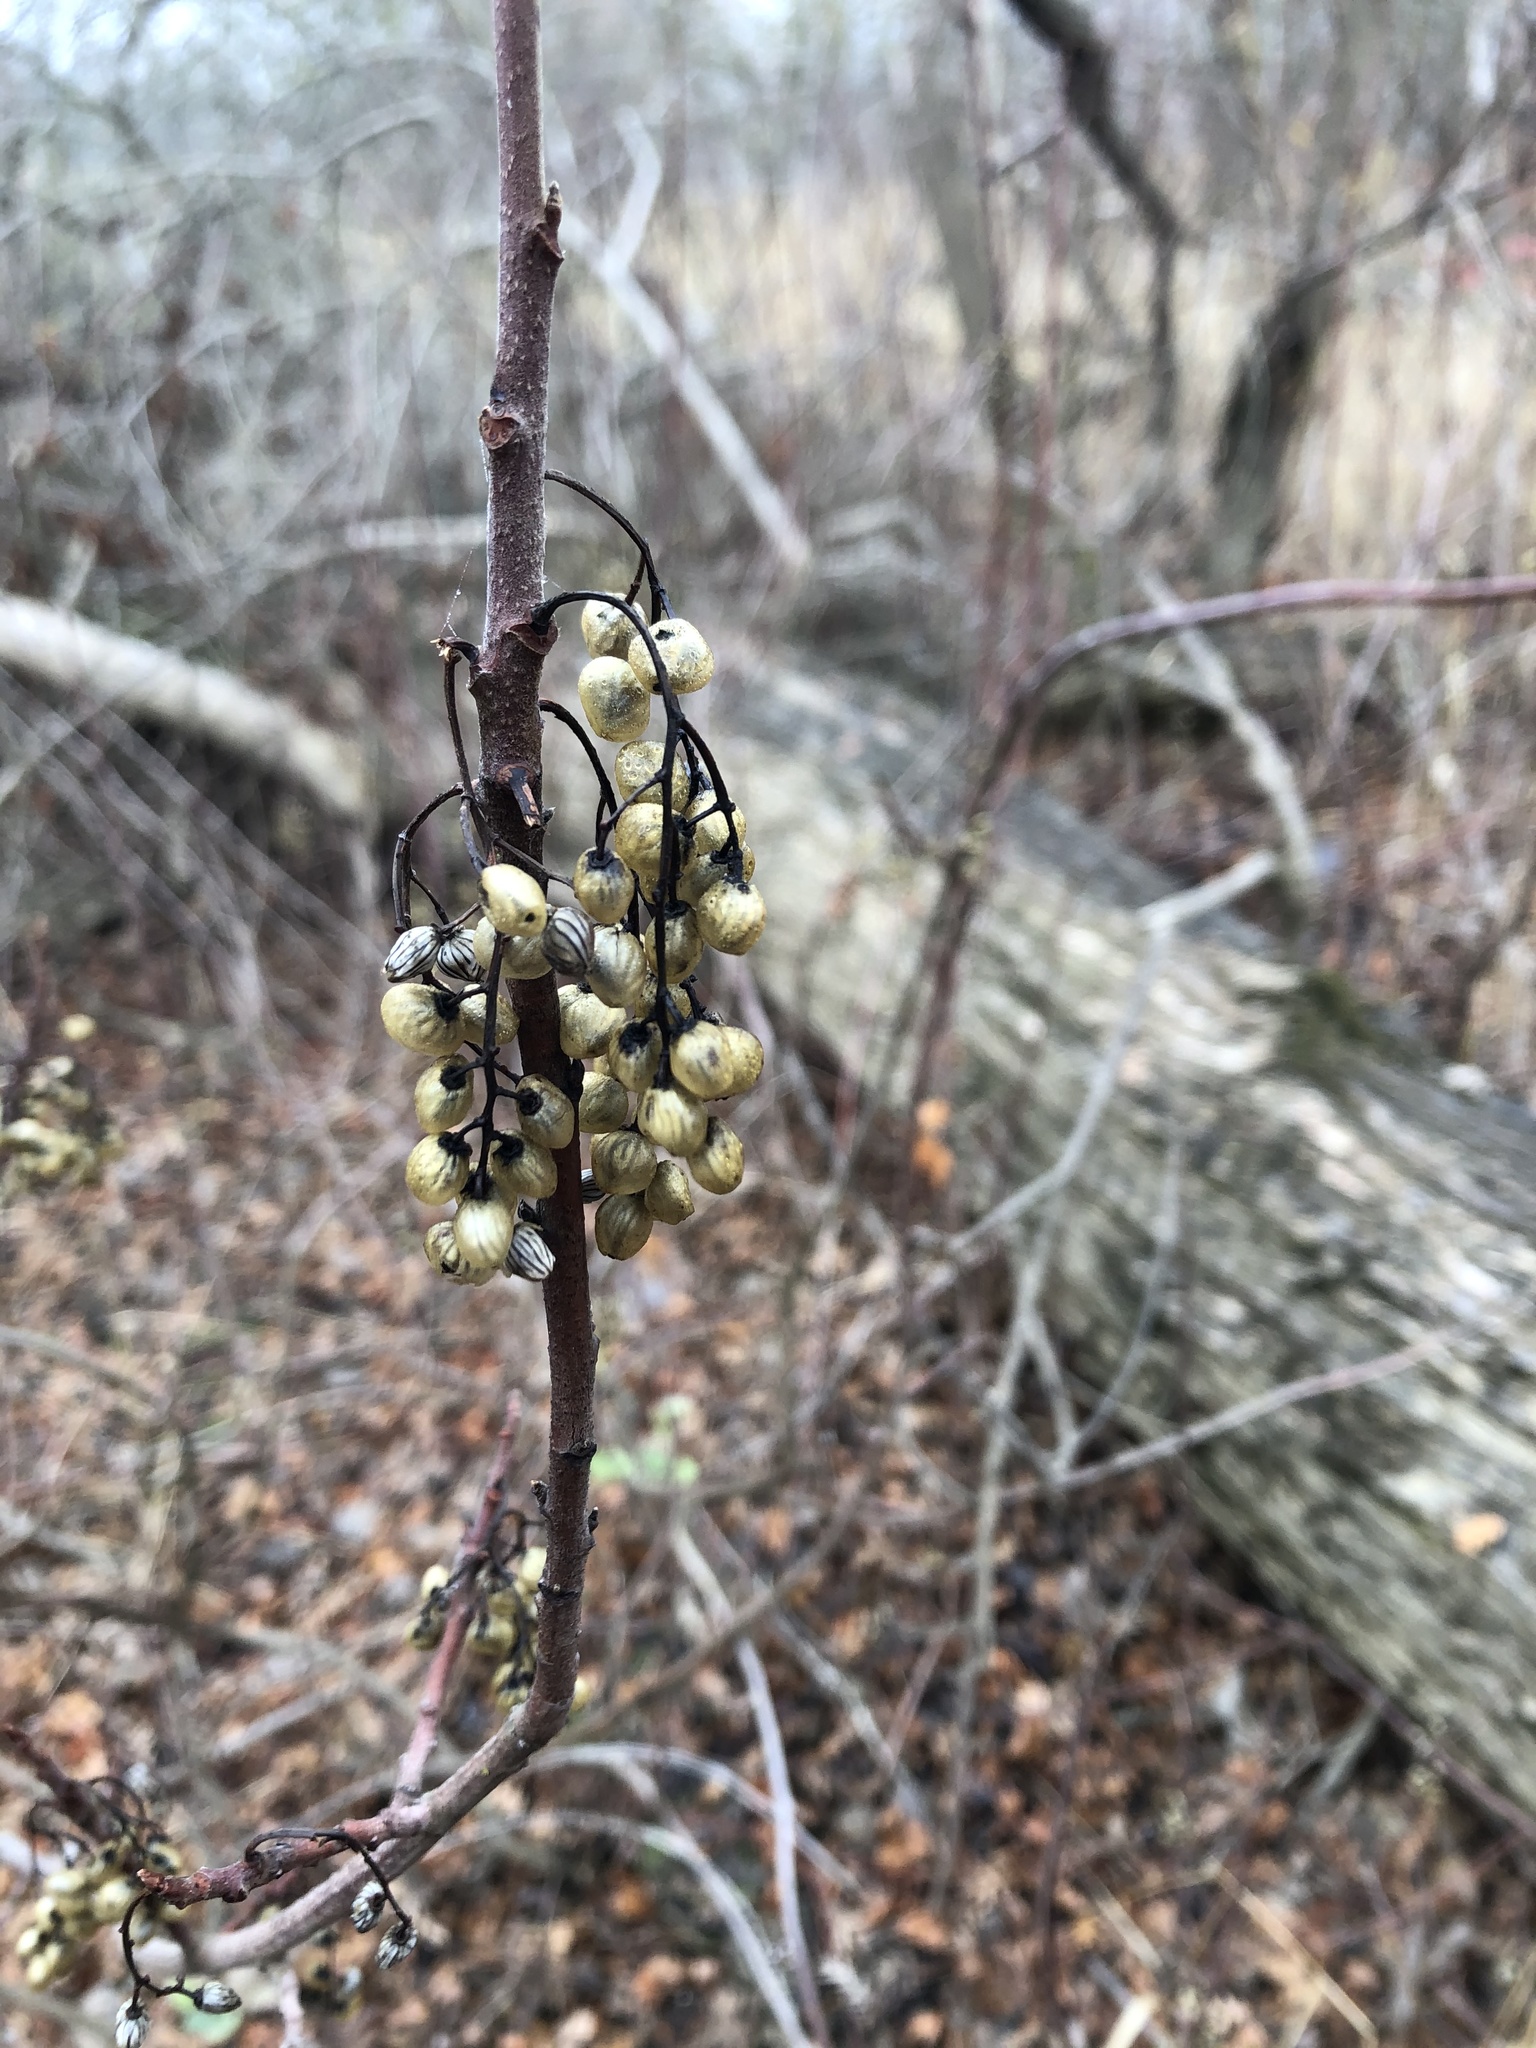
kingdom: Plantae
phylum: Tracheophyta
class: Magnoliopsida
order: Sapindales
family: Anacardiaceae
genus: Toxicodendron
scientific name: Toxicodendron diversilobum
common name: Pacific poison-oak
